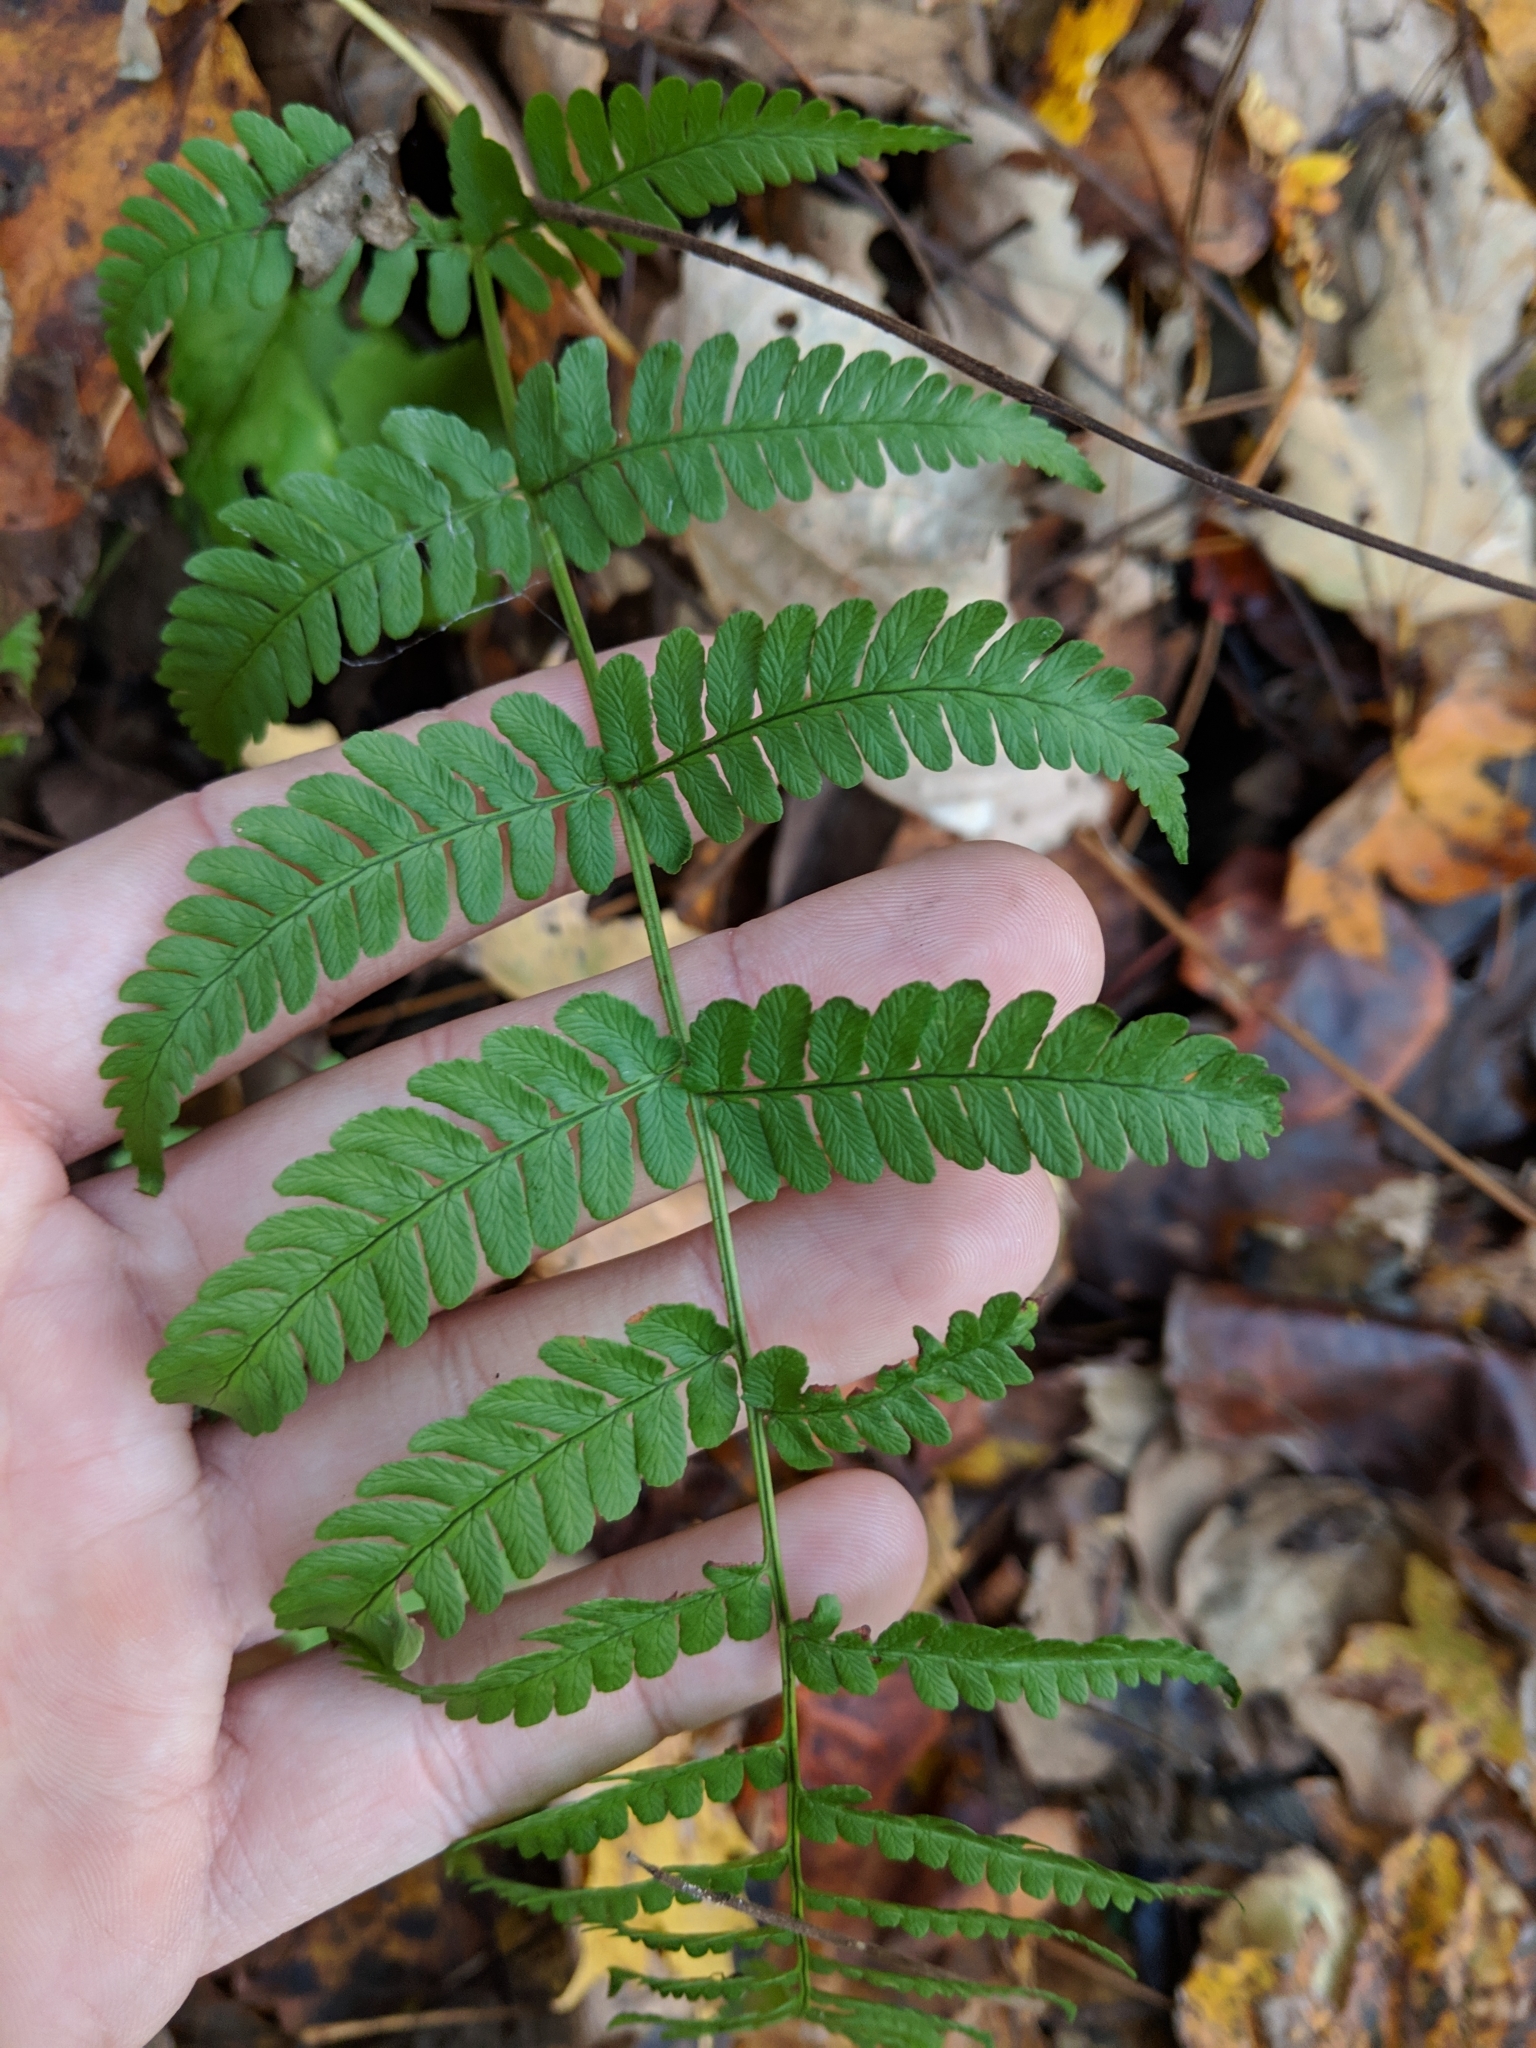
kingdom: Plantae
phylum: Tracheophyta
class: Polypodiopsida
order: Polypodiales
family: Dryopteridaceae
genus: Dryopteris
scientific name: Dryopteris marginalis
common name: Marginal wood fern
